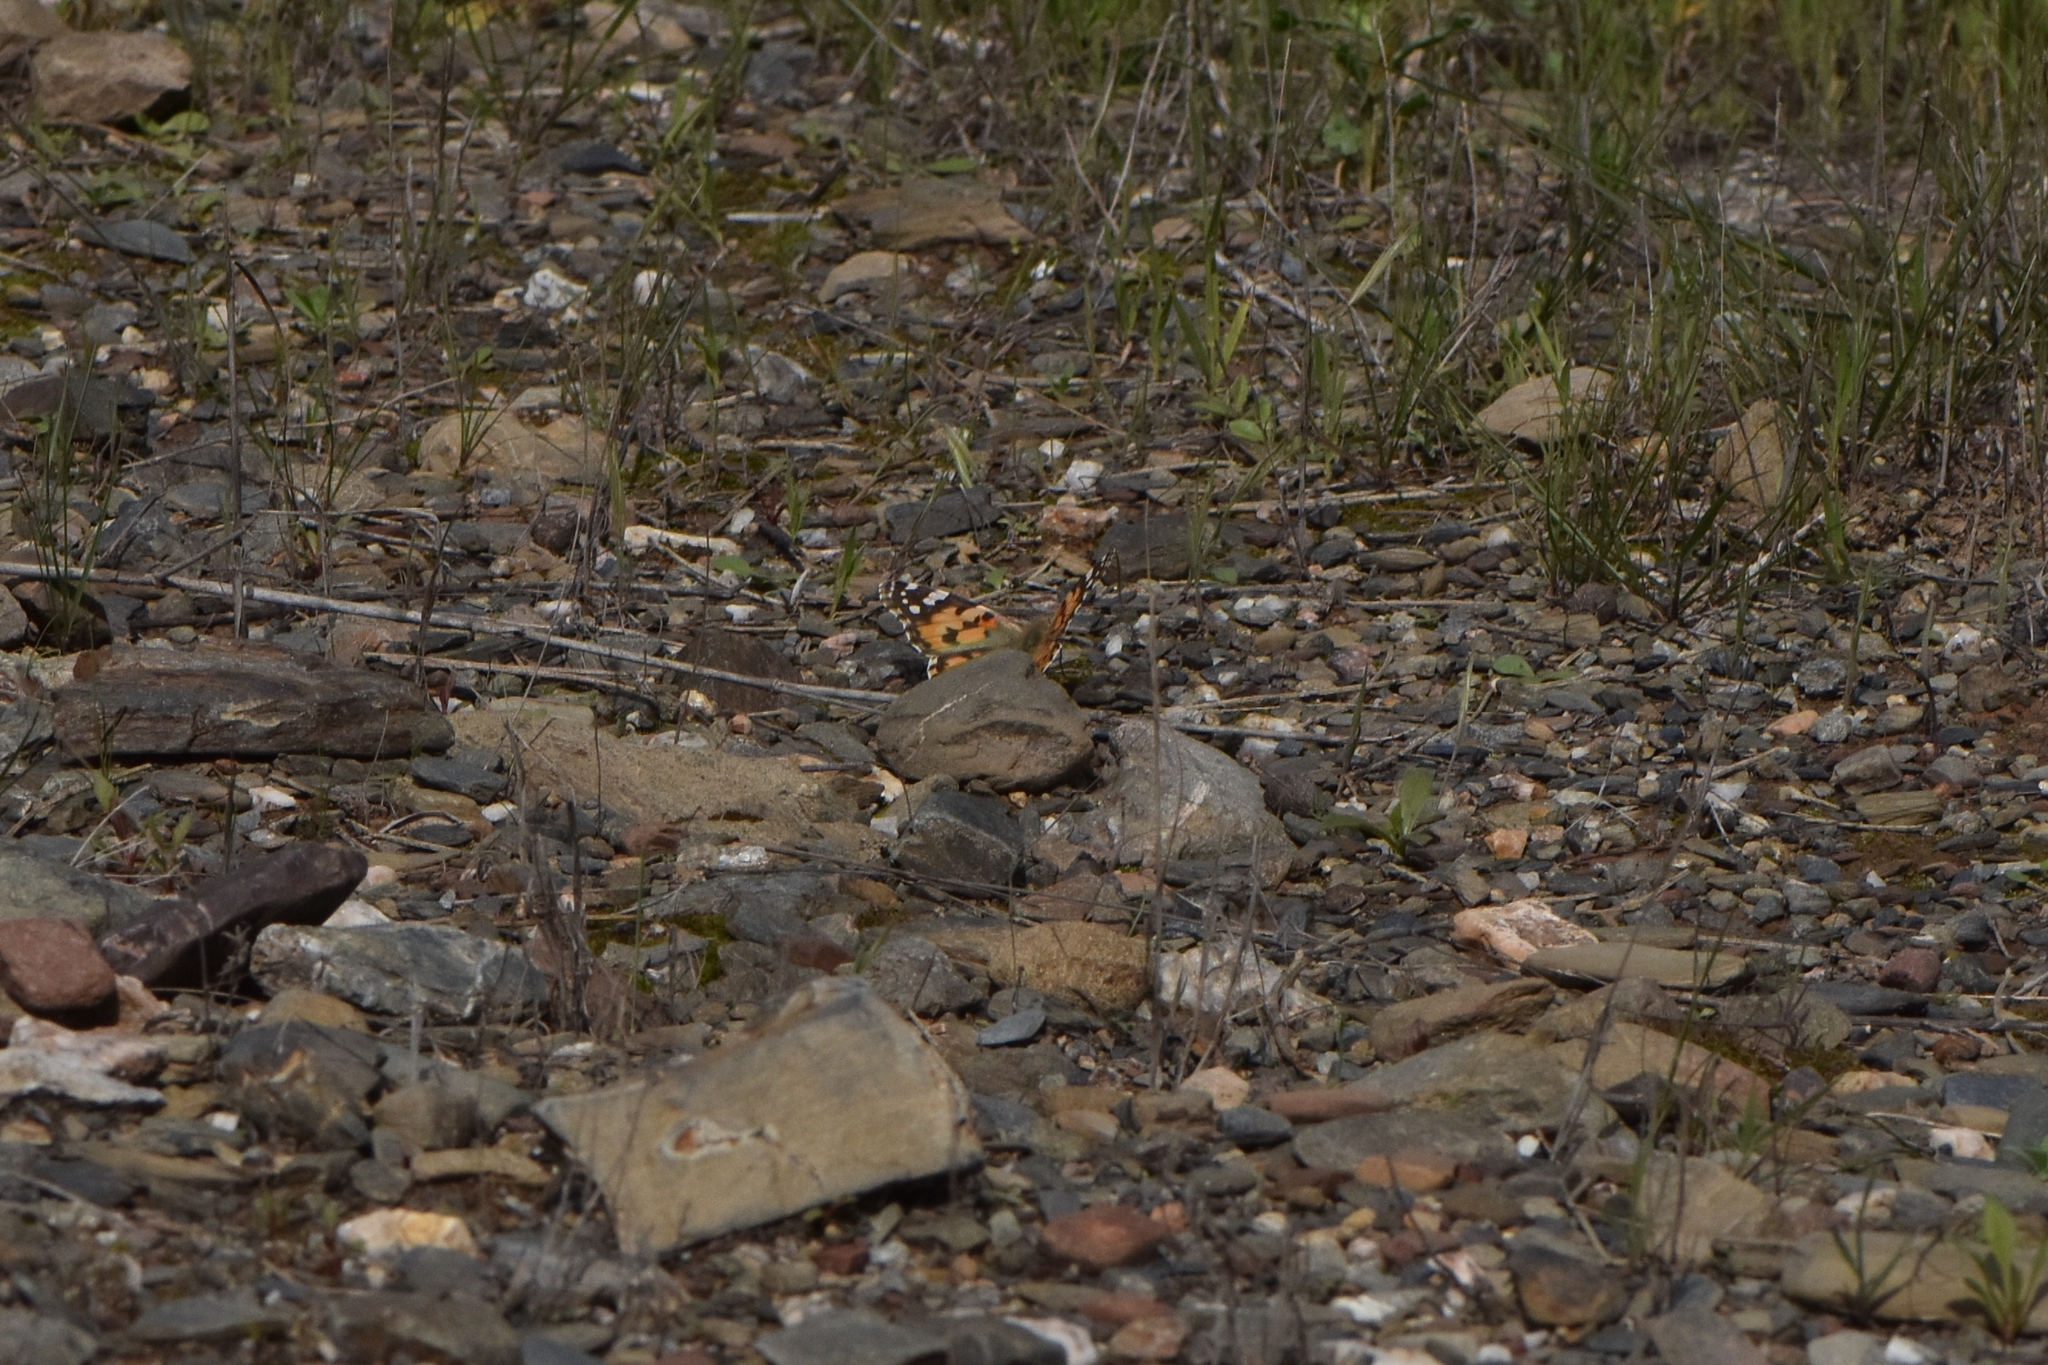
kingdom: Animalia
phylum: Arthropoda
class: Insecta
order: Lepidoptera
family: Nymphalidae
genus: Vanessa
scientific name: Vanessa cardui
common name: Painted lady
